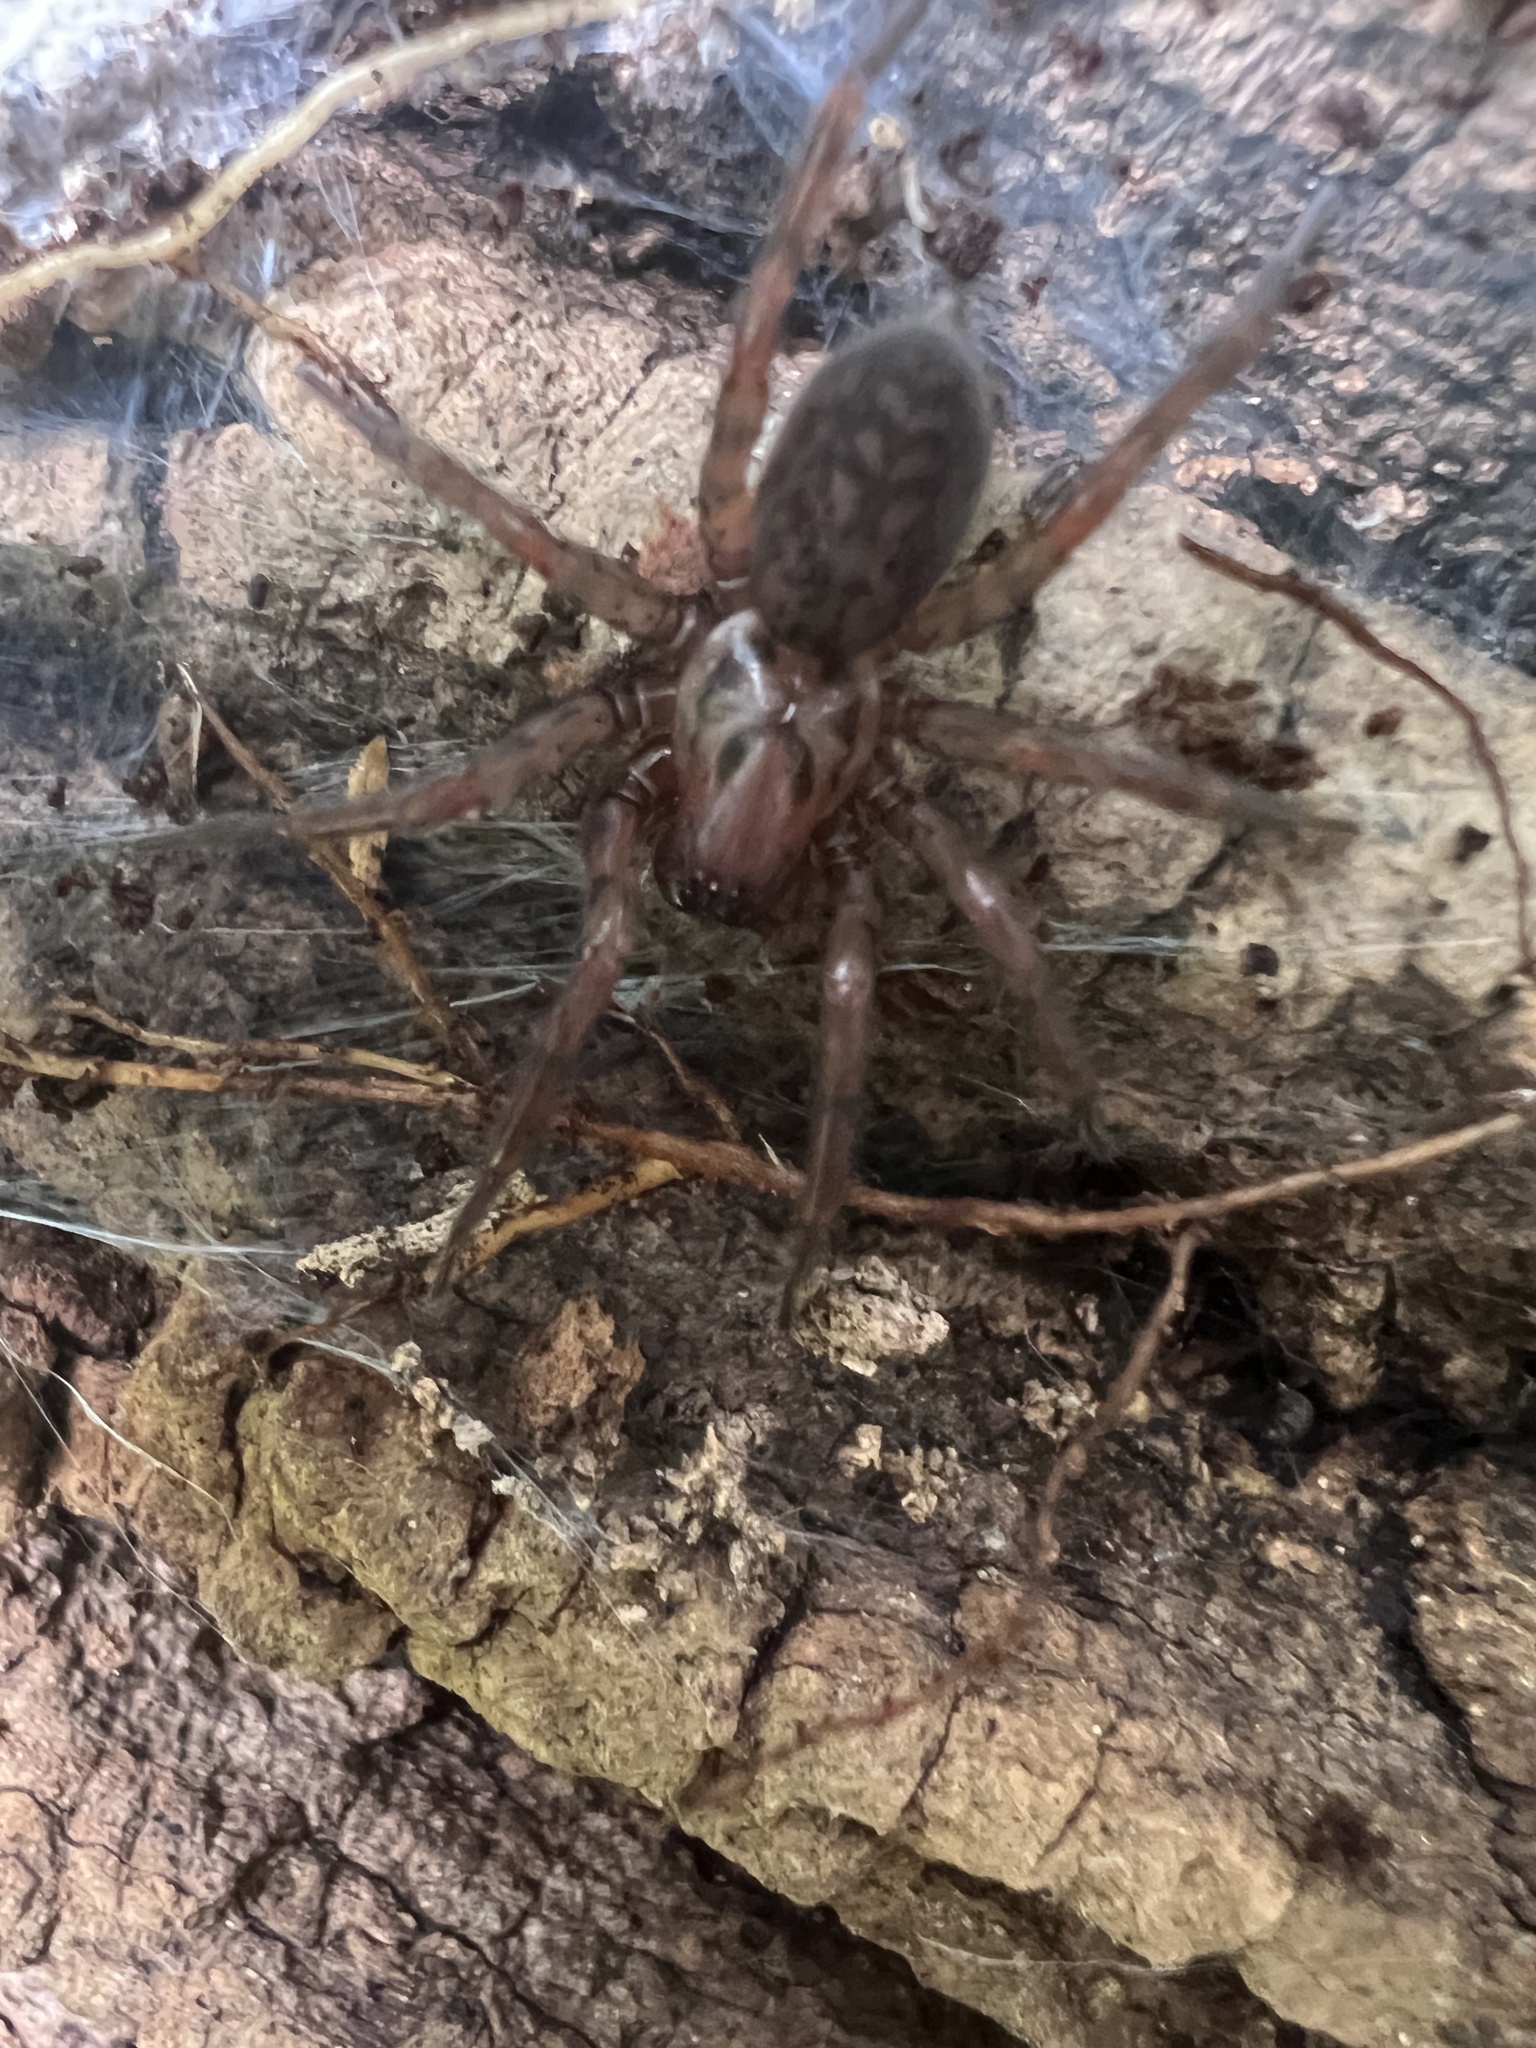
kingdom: Animalia
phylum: Arthropoda
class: Arachnida
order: Araneae
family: Agelenidae
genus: Coras
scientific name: Coras
